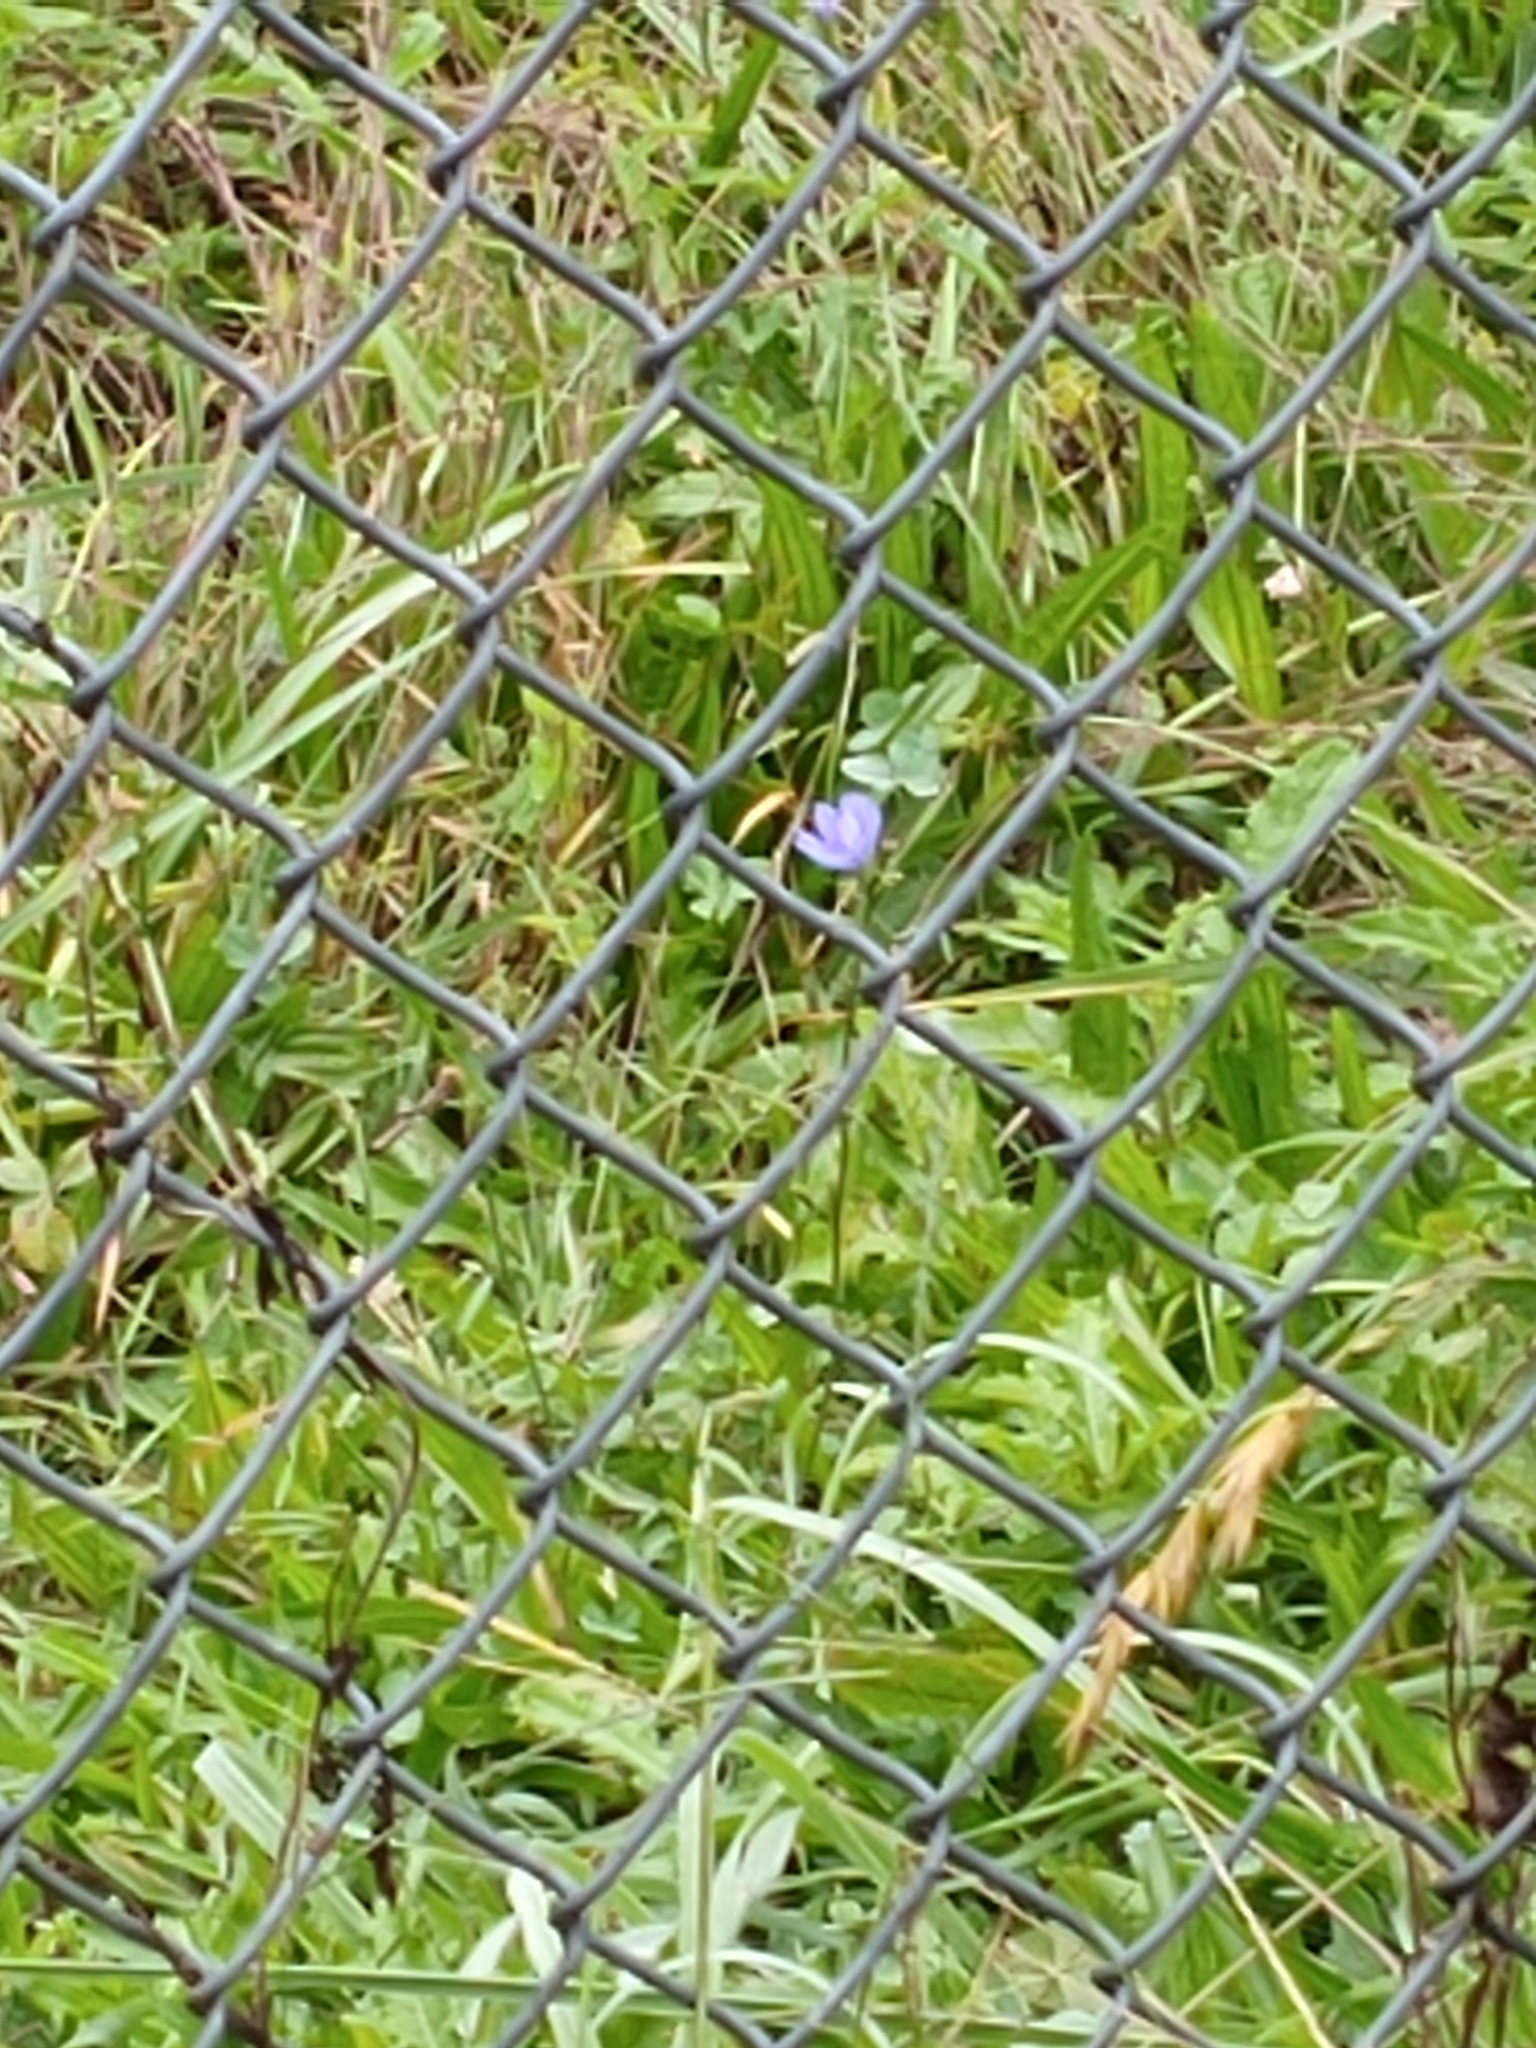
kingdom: Plantae
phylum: Tracheophyta
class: Magnoliopsida
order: Asterales
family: Asteraceae
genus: Cichorium
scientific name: Cichorium intybus
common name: Chicory
